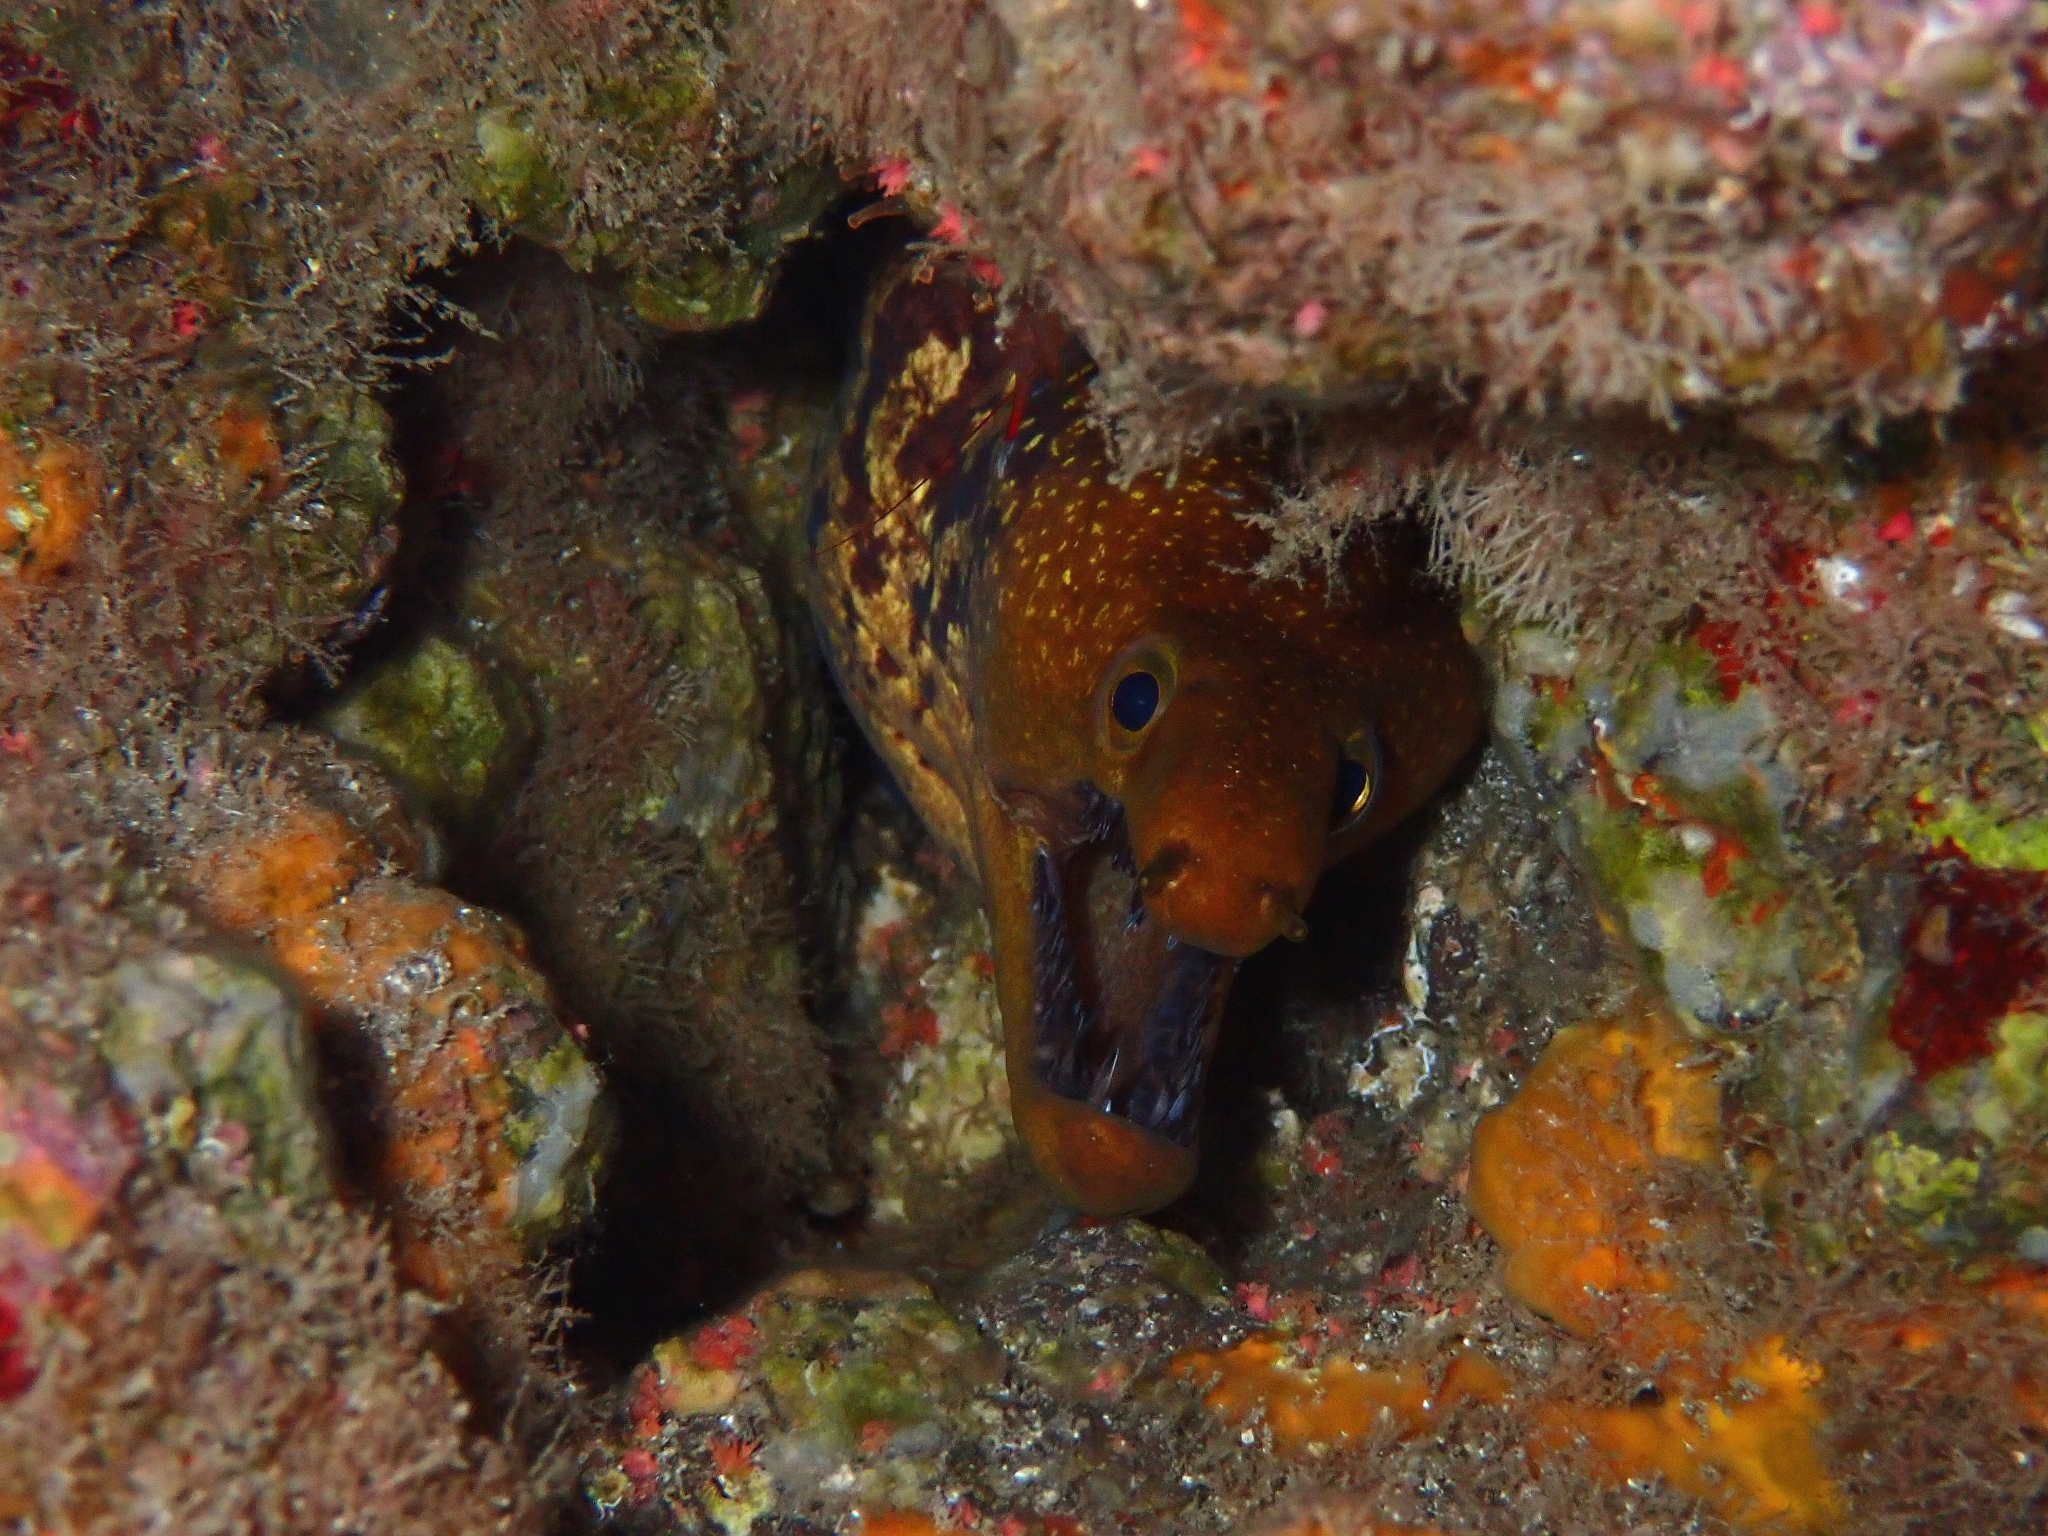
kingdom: Animalia
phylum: Chordata
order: Anguilliformes
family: Muraenidae
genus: Enchelycore
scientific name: Enchelycore anatina
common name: Fangtooth moray
